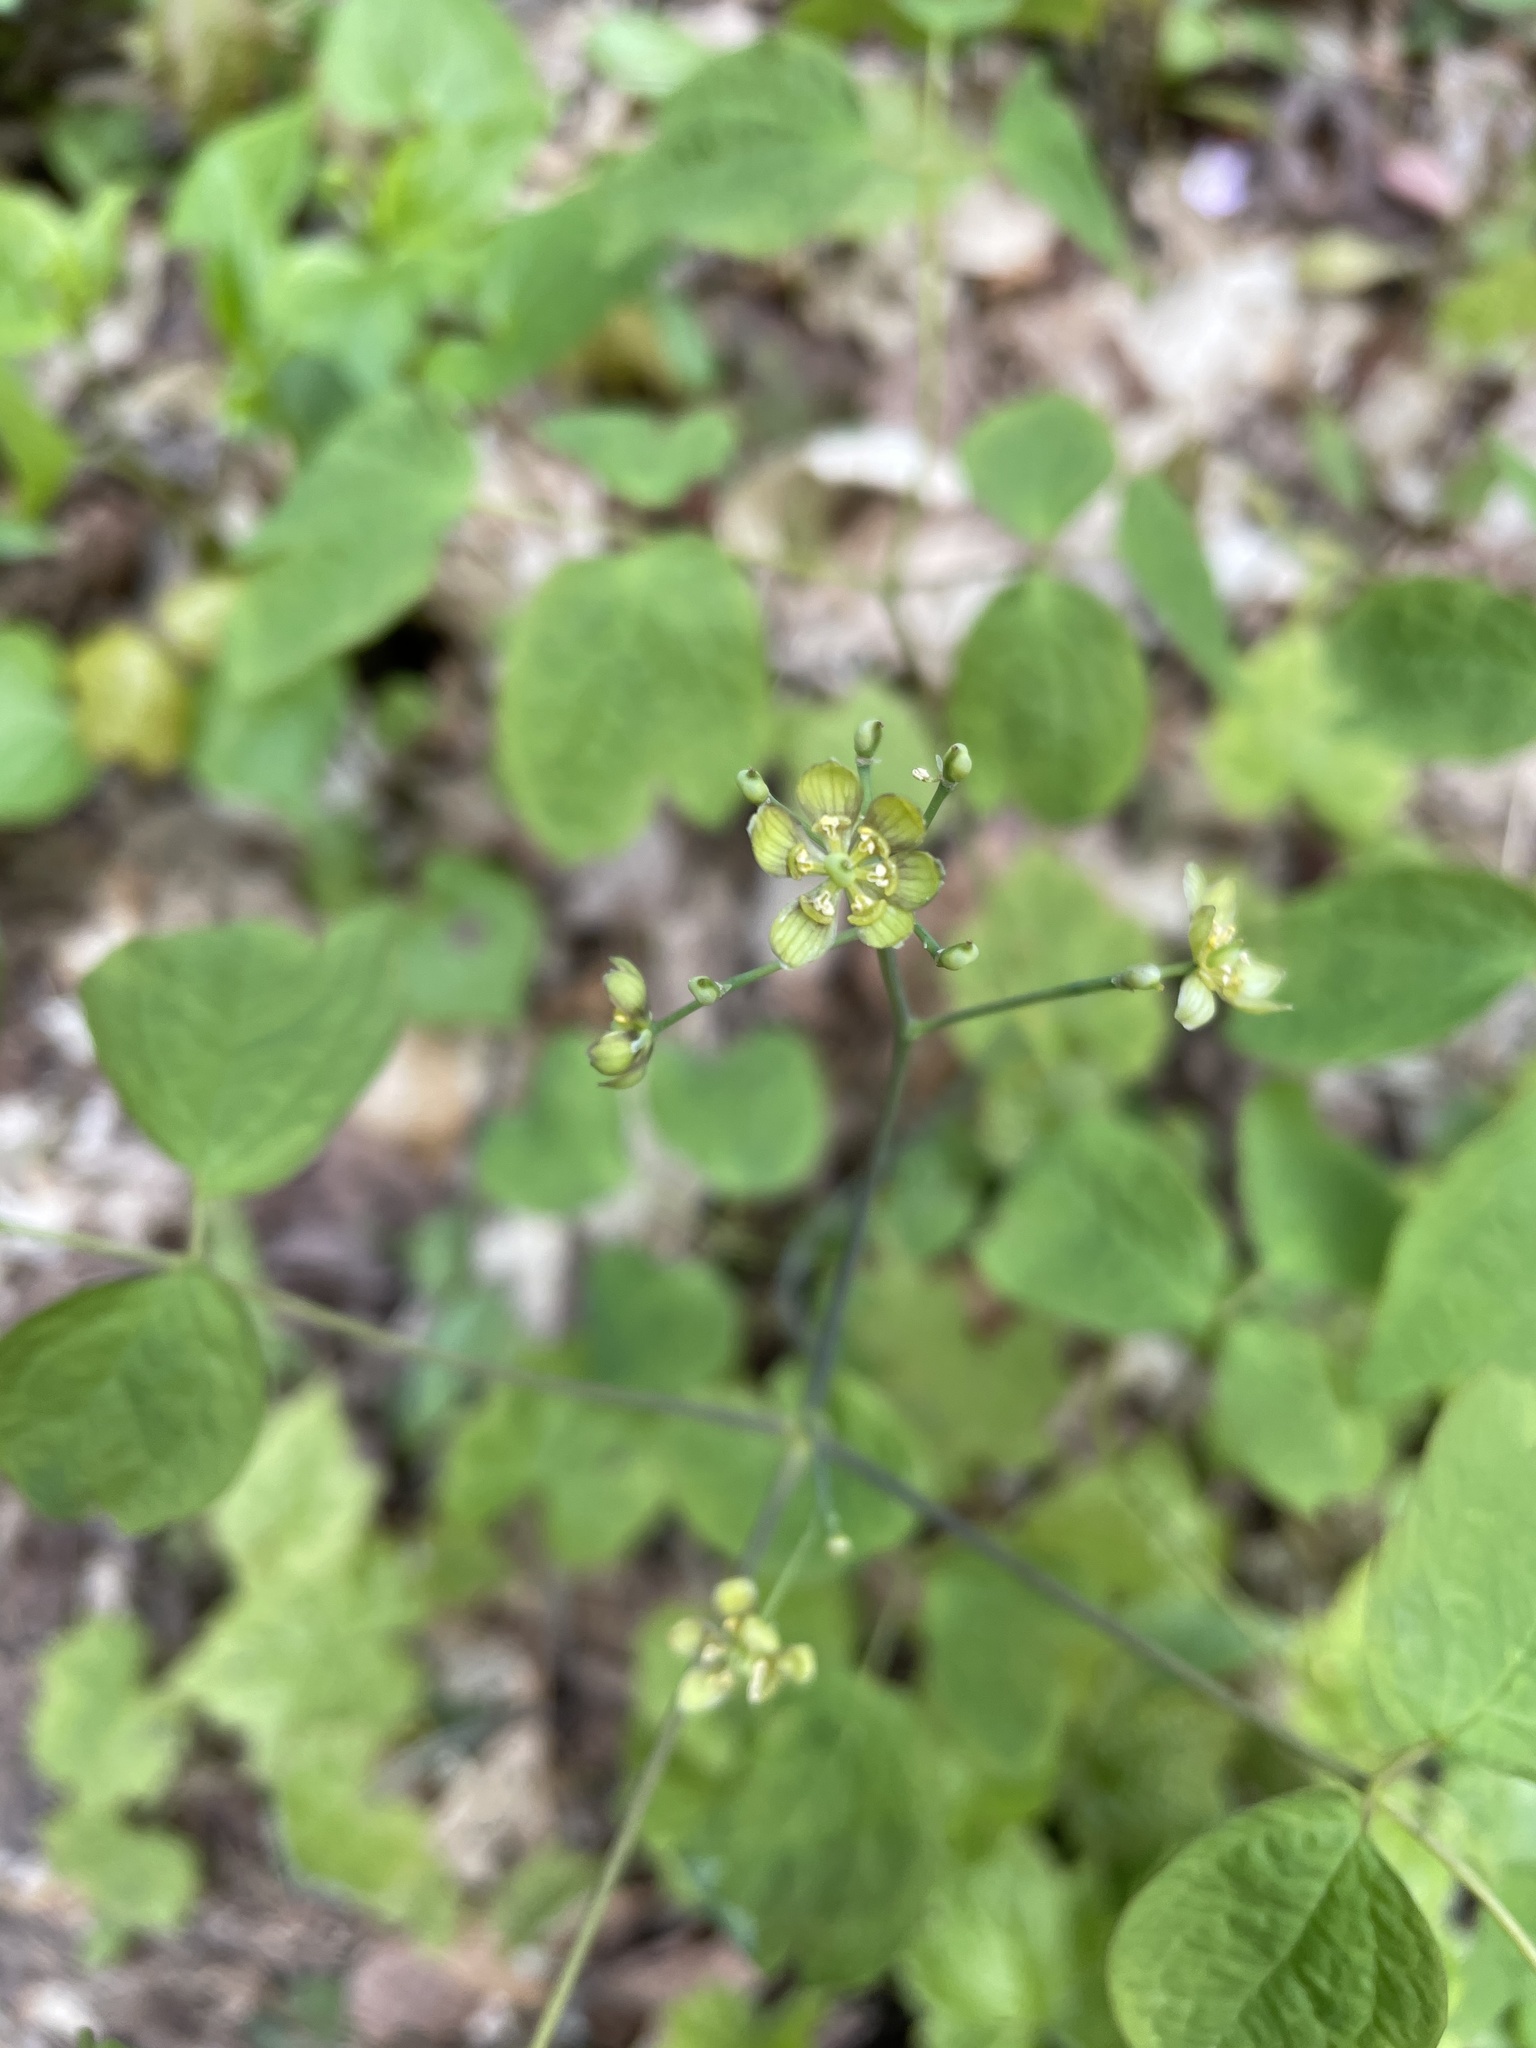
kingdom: Plantae
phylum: Tracheophyta
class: Magnoliopsida
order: Ranunculales
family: Berberidaceae
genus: Caulophyllum
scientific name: Caulophyllum thalictroides
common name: Blue cohosh
